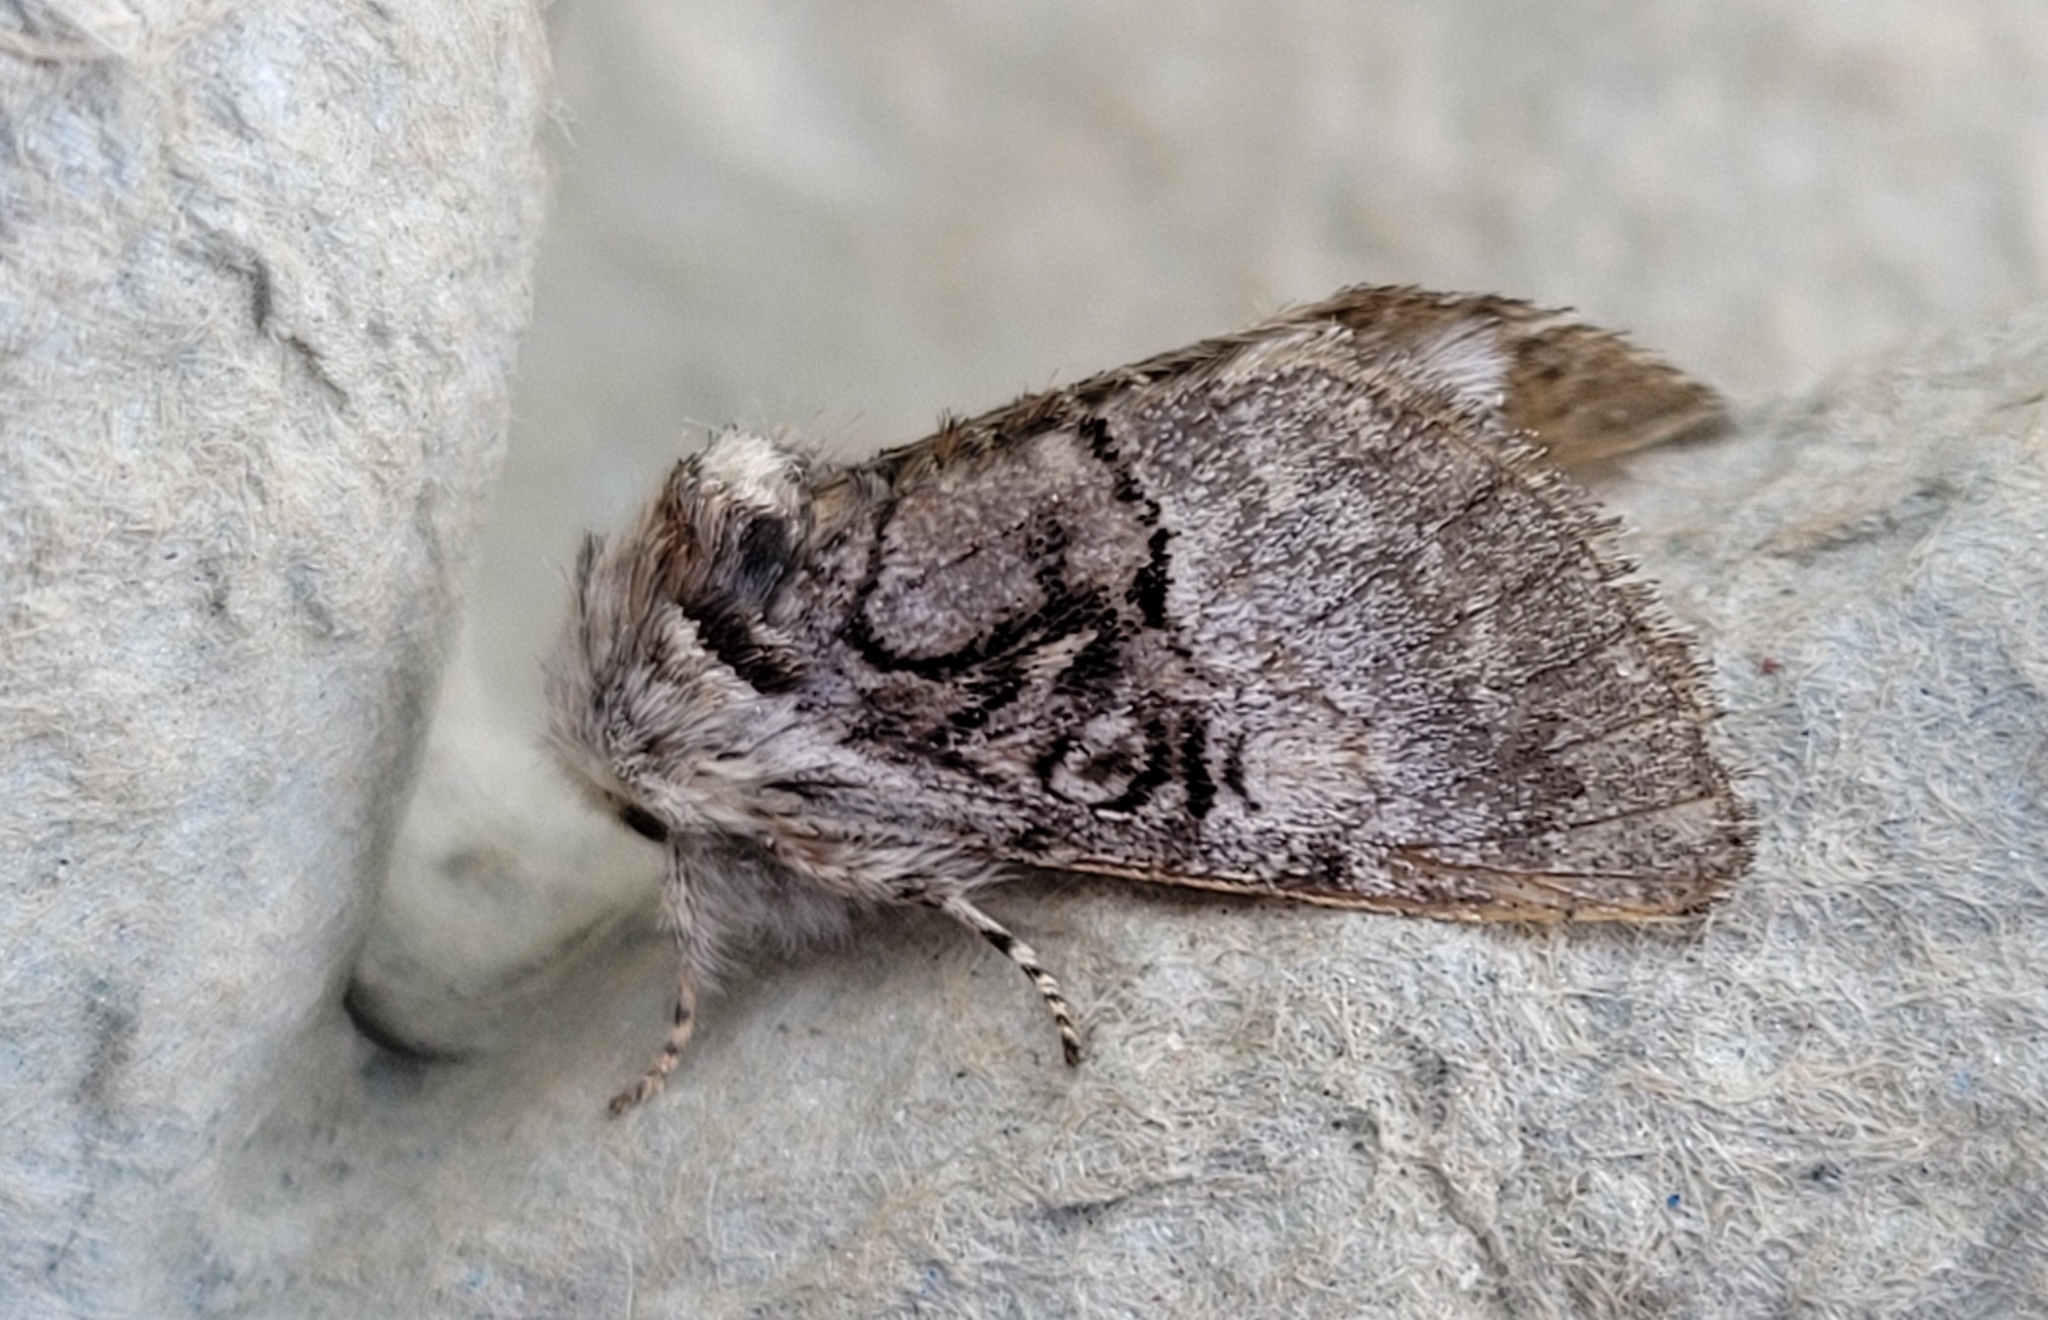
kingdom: Animalia
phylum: Arthropoda
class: Insecta
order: Lepidoptera
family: Noctuidae
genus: Colocasia
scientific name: Colocasia coryli
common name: Nut-tree tussock
